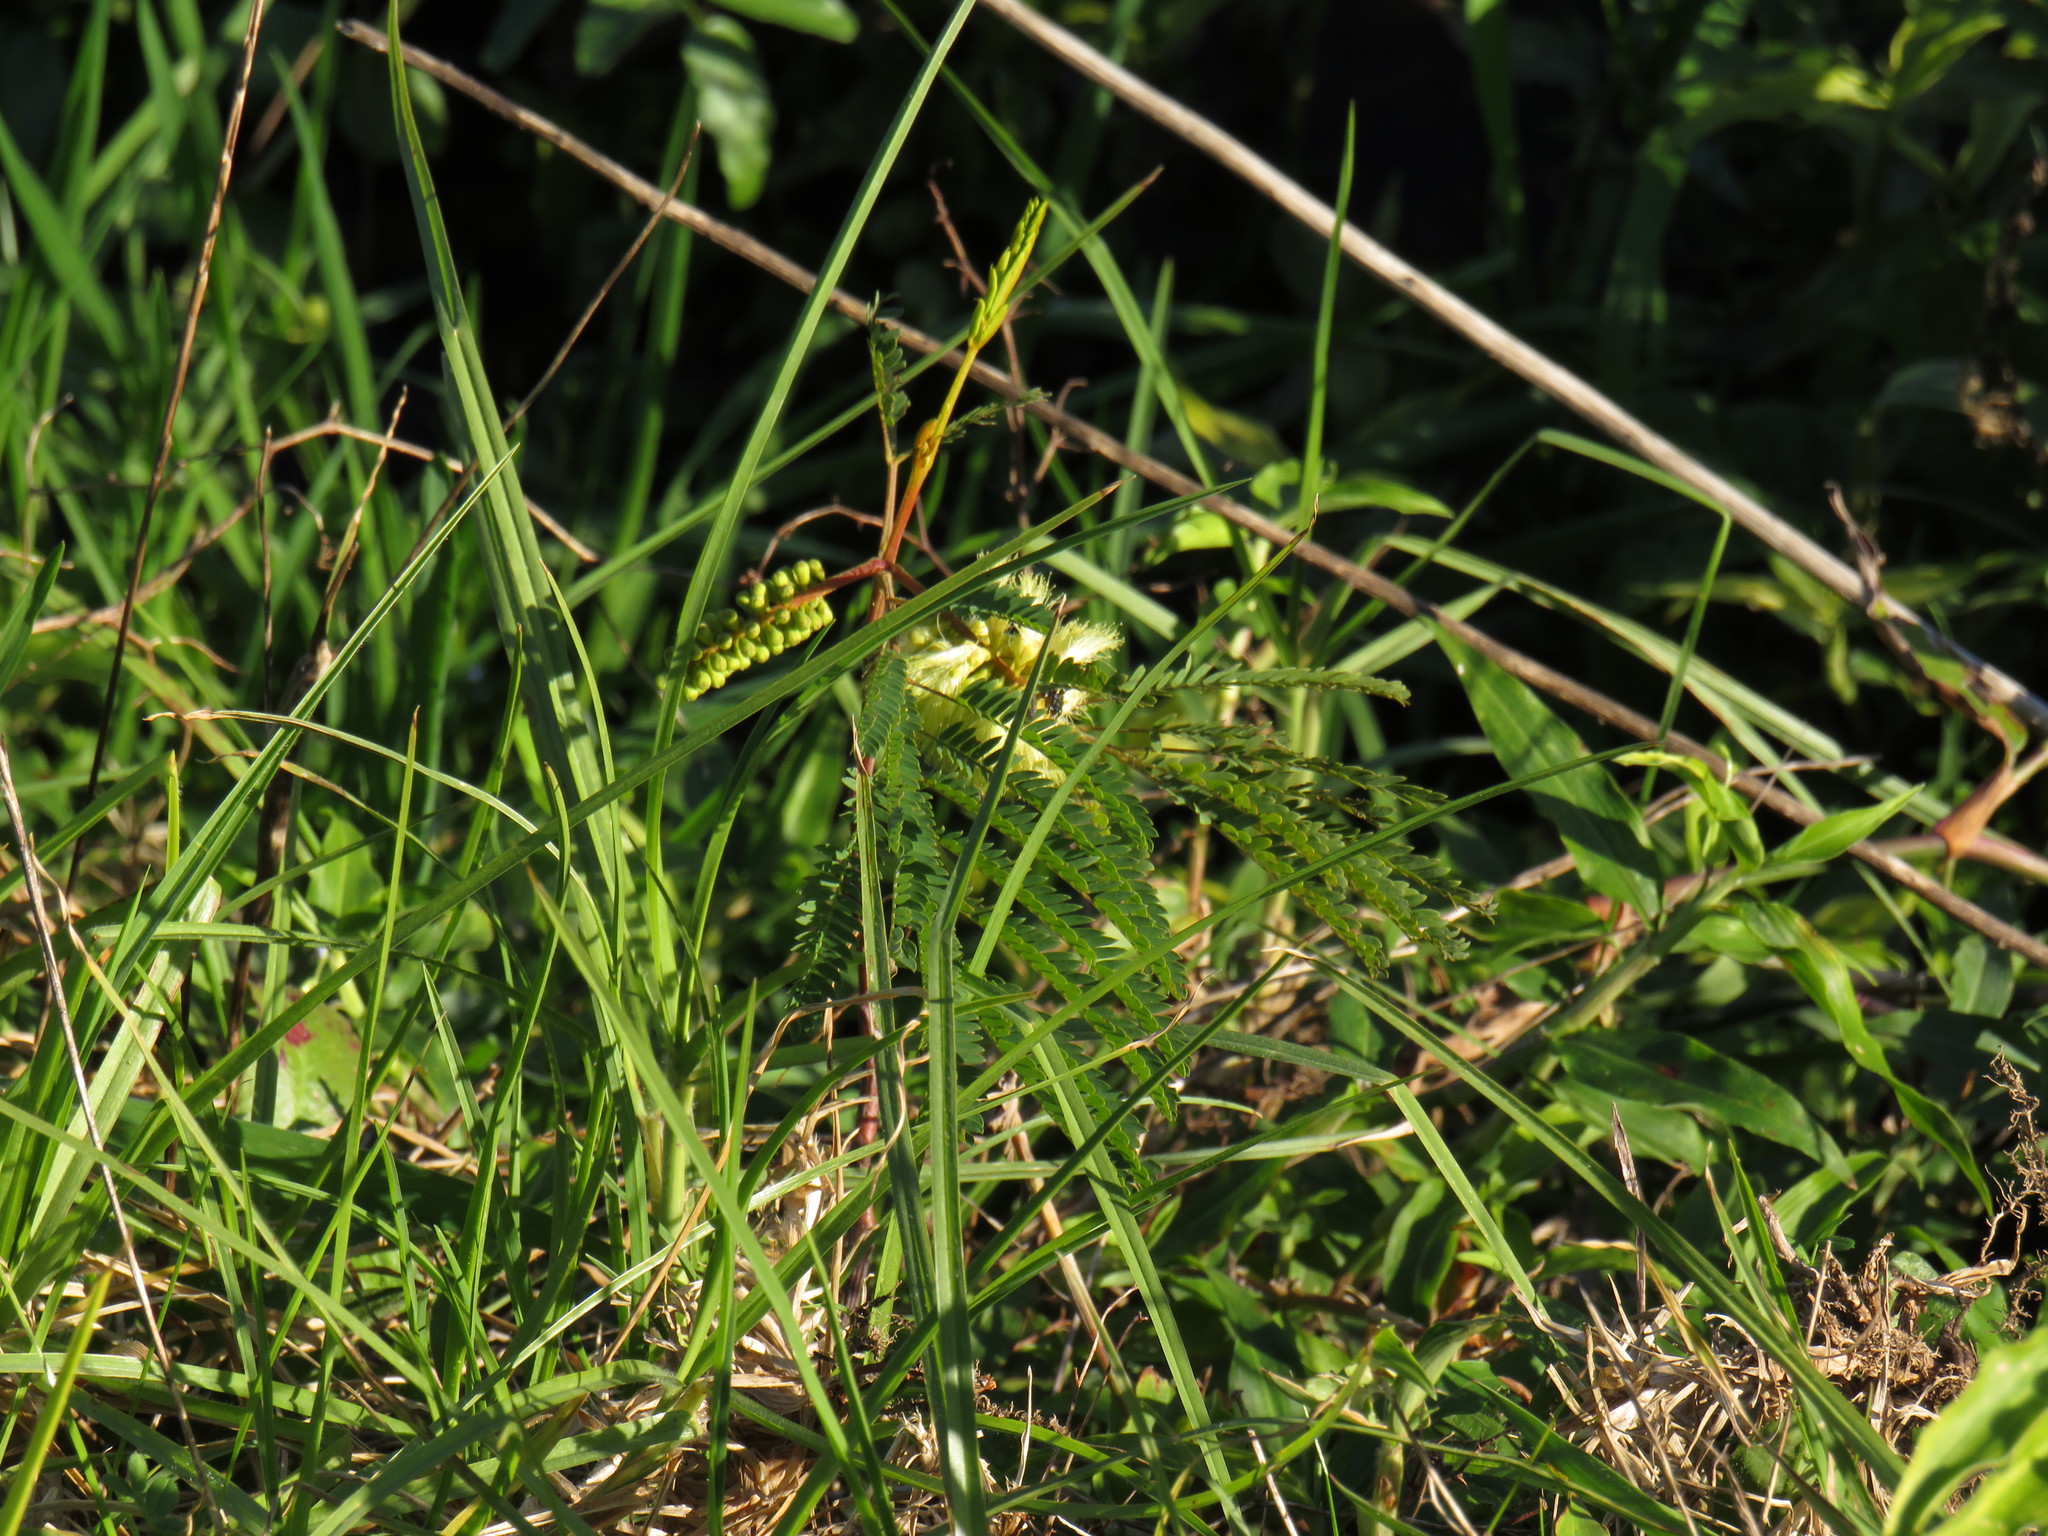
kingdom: Plantae
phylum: Tracheophyta
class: Magnoliopsida
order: Fabales
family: Fabaceae
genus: Paraserianthes
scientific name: Paraserianthes lophantha
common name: Plume albizia
